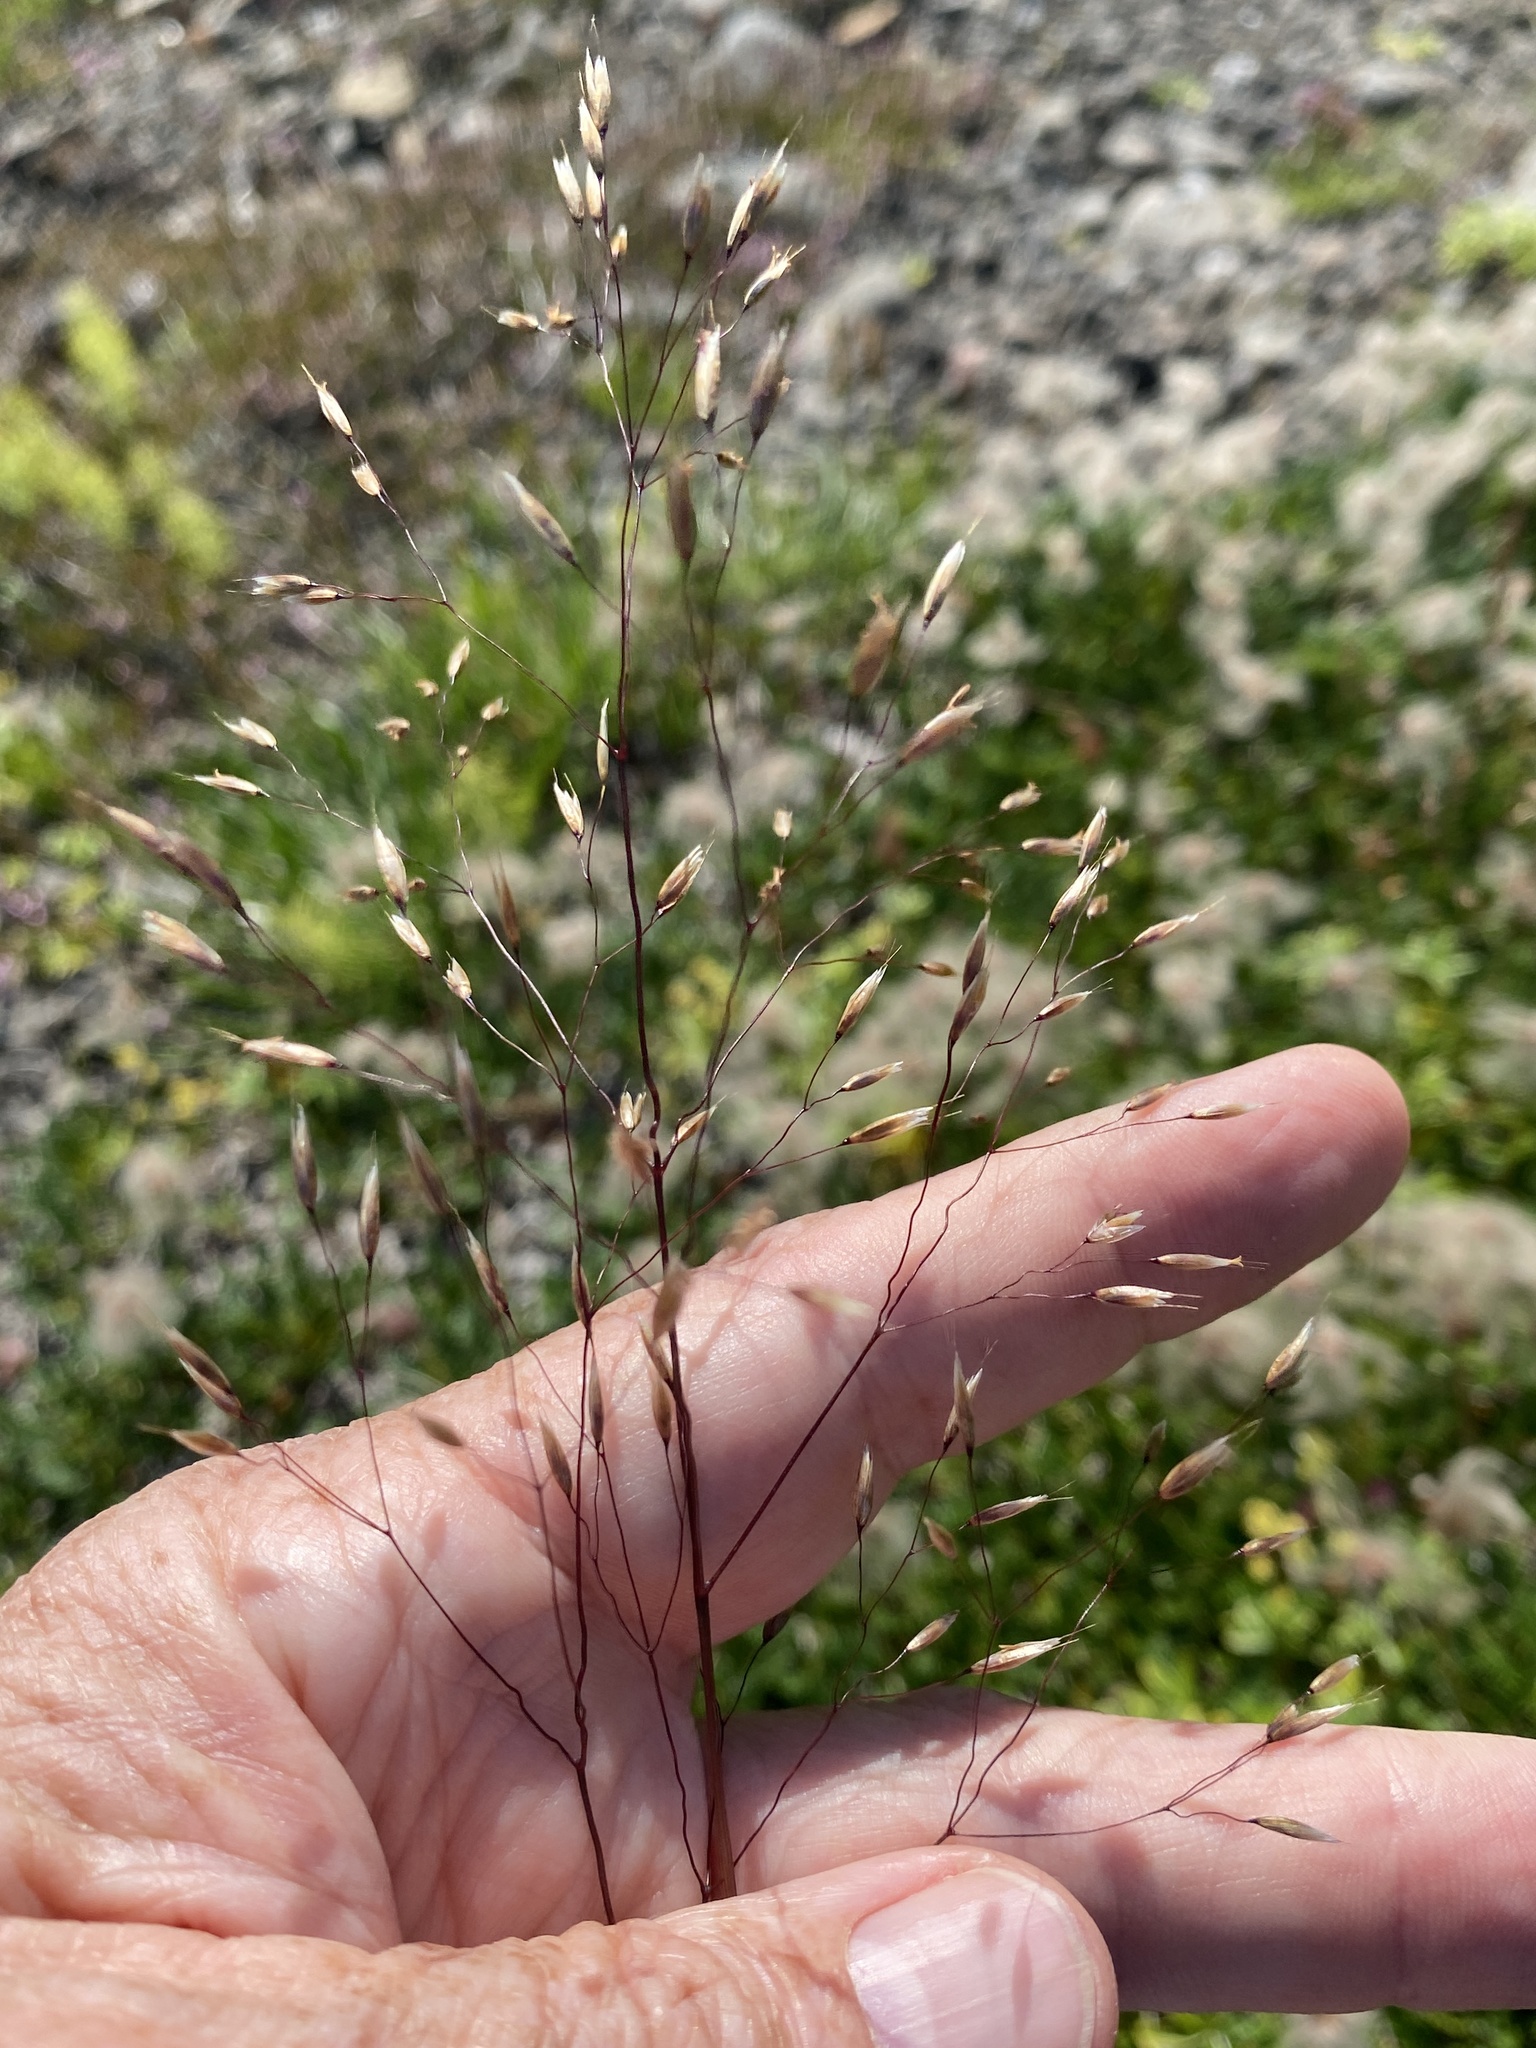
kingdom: Plantae
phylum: Tracheophyta
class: Liliopsida
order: Poales
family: Poaceae
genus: Avenella
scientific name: Avenella flexuosa
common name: Wavy hairgrass
